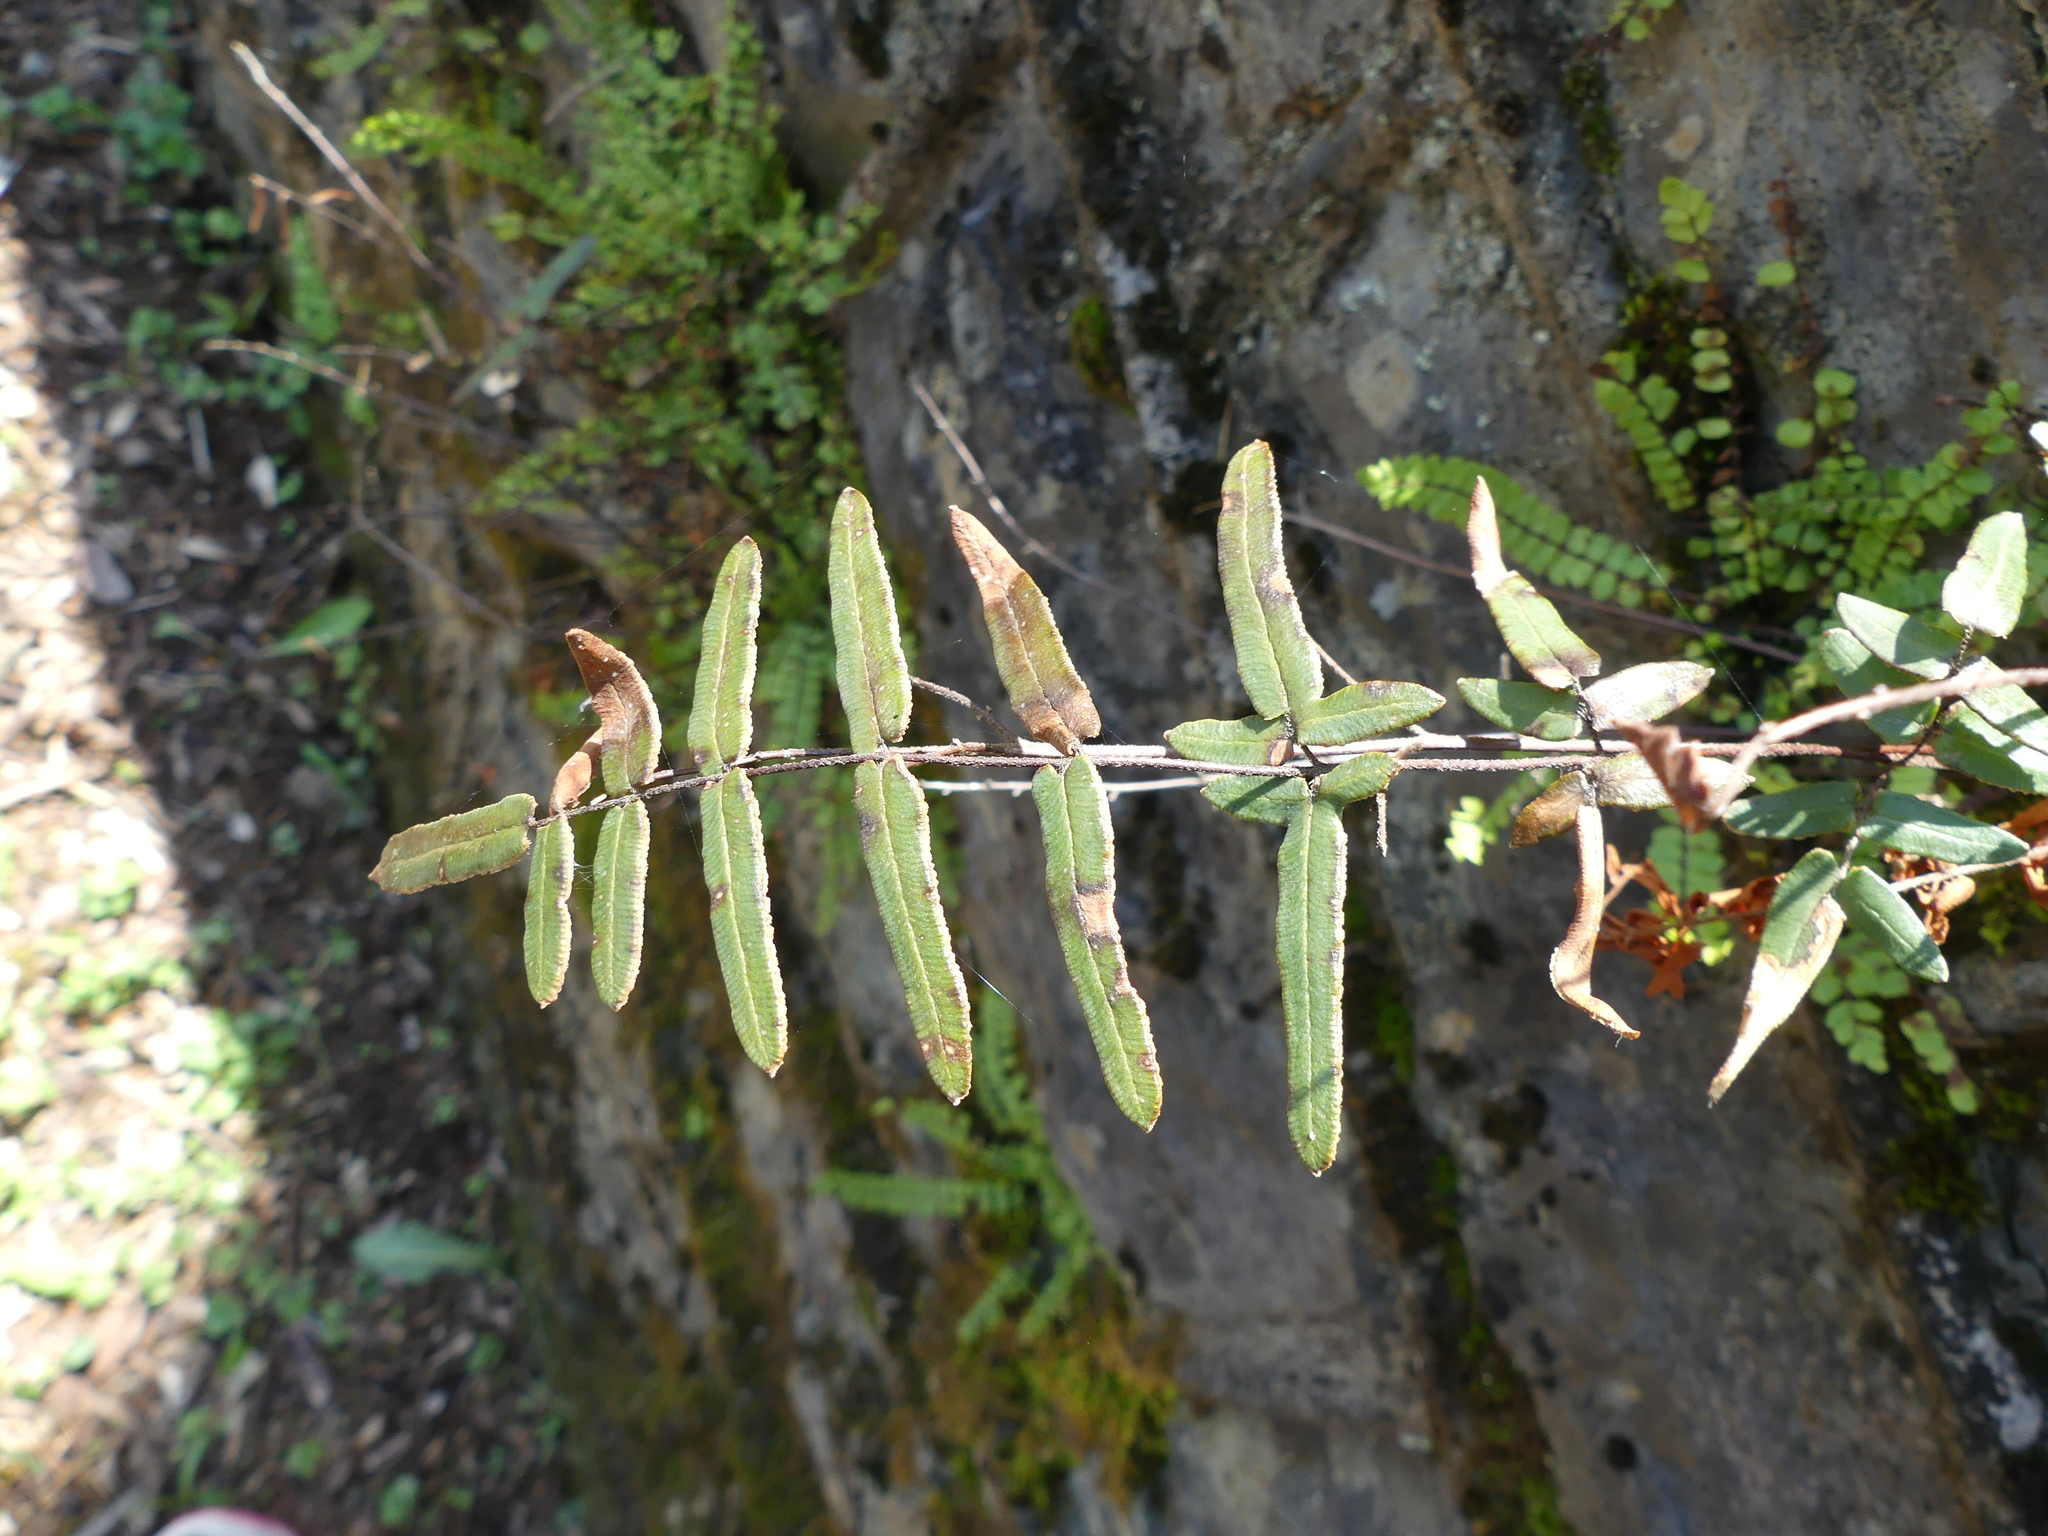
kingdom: Plantae
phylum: Tracheophyta
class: Polypodiopsida
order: Polypodiales
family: Pteridaceae
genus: Pellaea
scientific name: Pellaea atropurpurea
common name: Hairy cliffbrake
